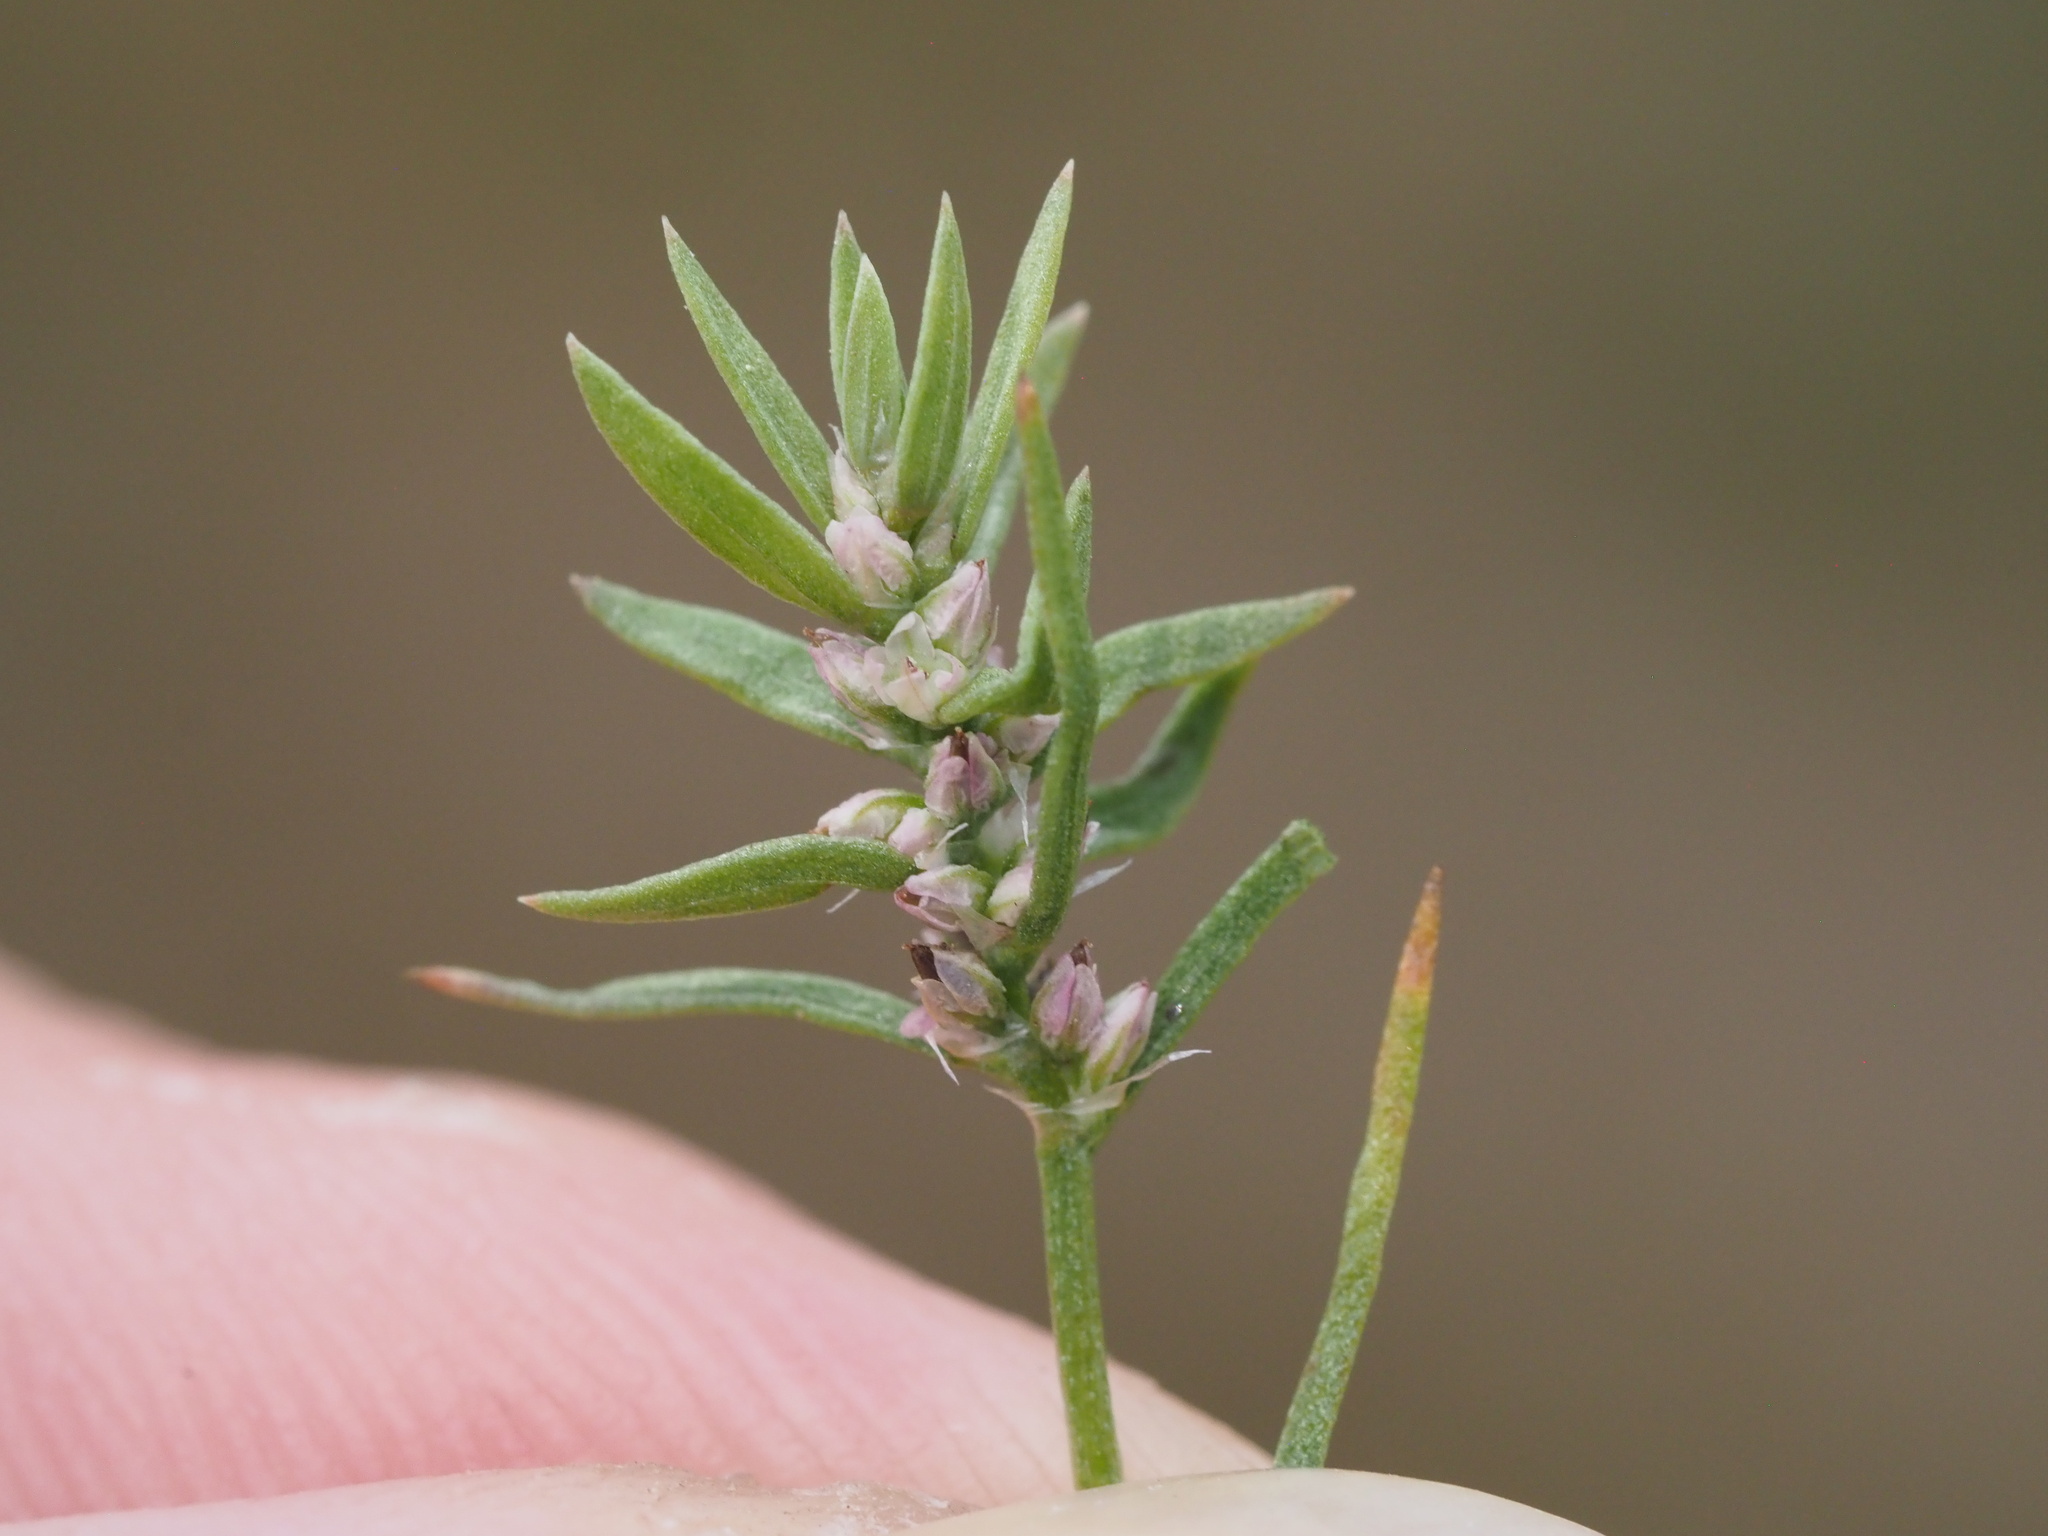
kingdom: Plantae
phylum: Tracheophyta
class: Magnoliopsida
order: Caryophyllales
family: Polygonaceae
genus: Polygonum
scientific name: Polygonum polygaloides
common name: Polygala knotweed
